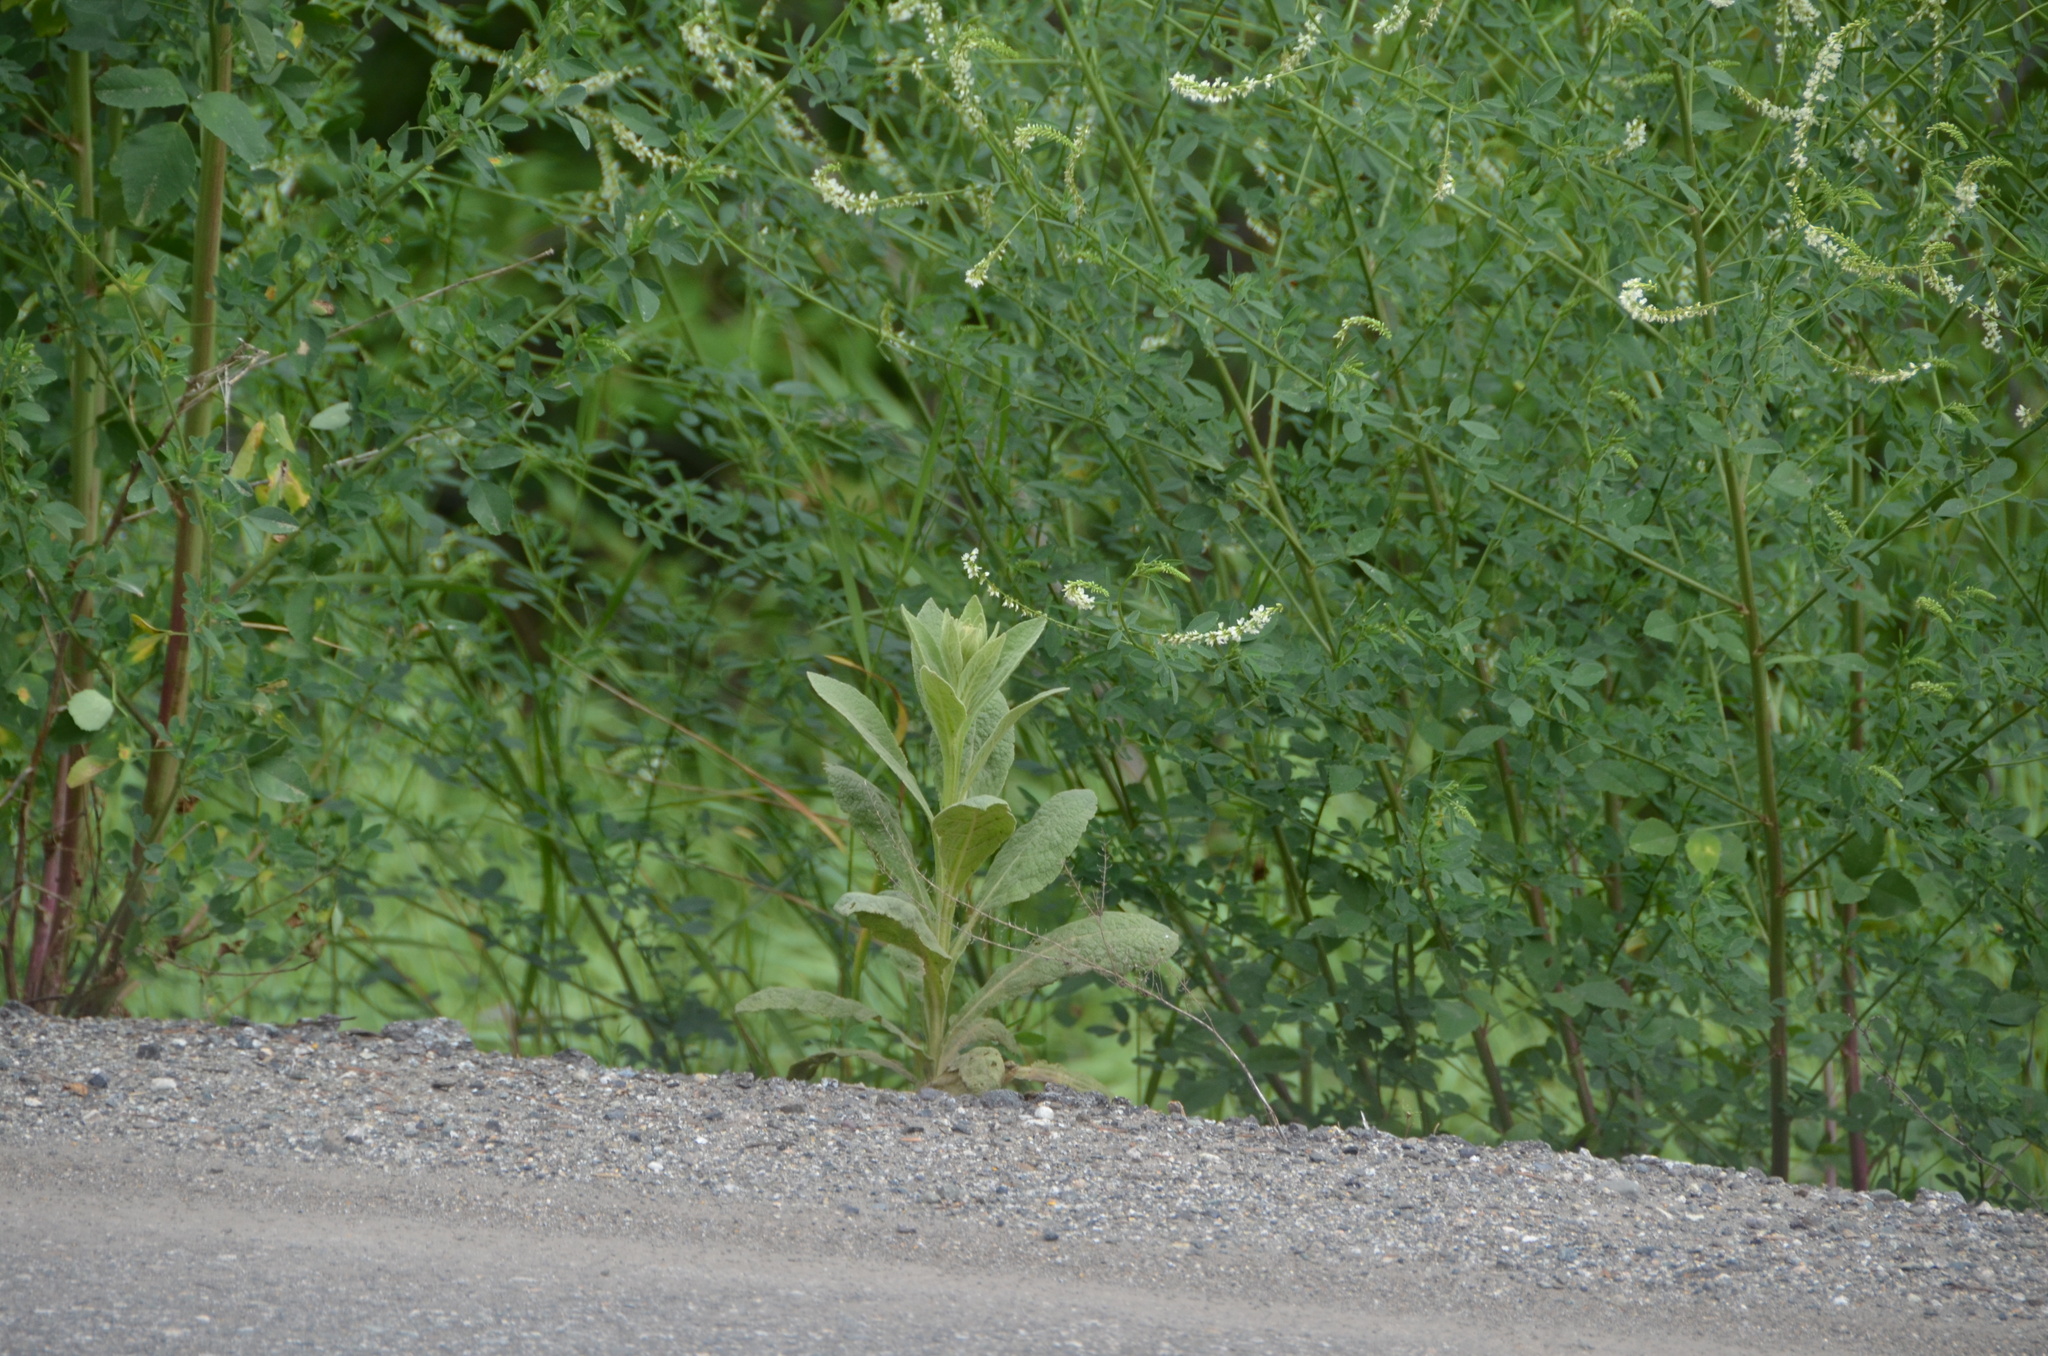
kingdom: Plantae
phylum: Tracheophyta
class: Magnoliopsida
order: Lamiales
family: Scrophulariaceae
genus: Verbascum
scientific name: Verbascum thapsus
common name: Common mullein
